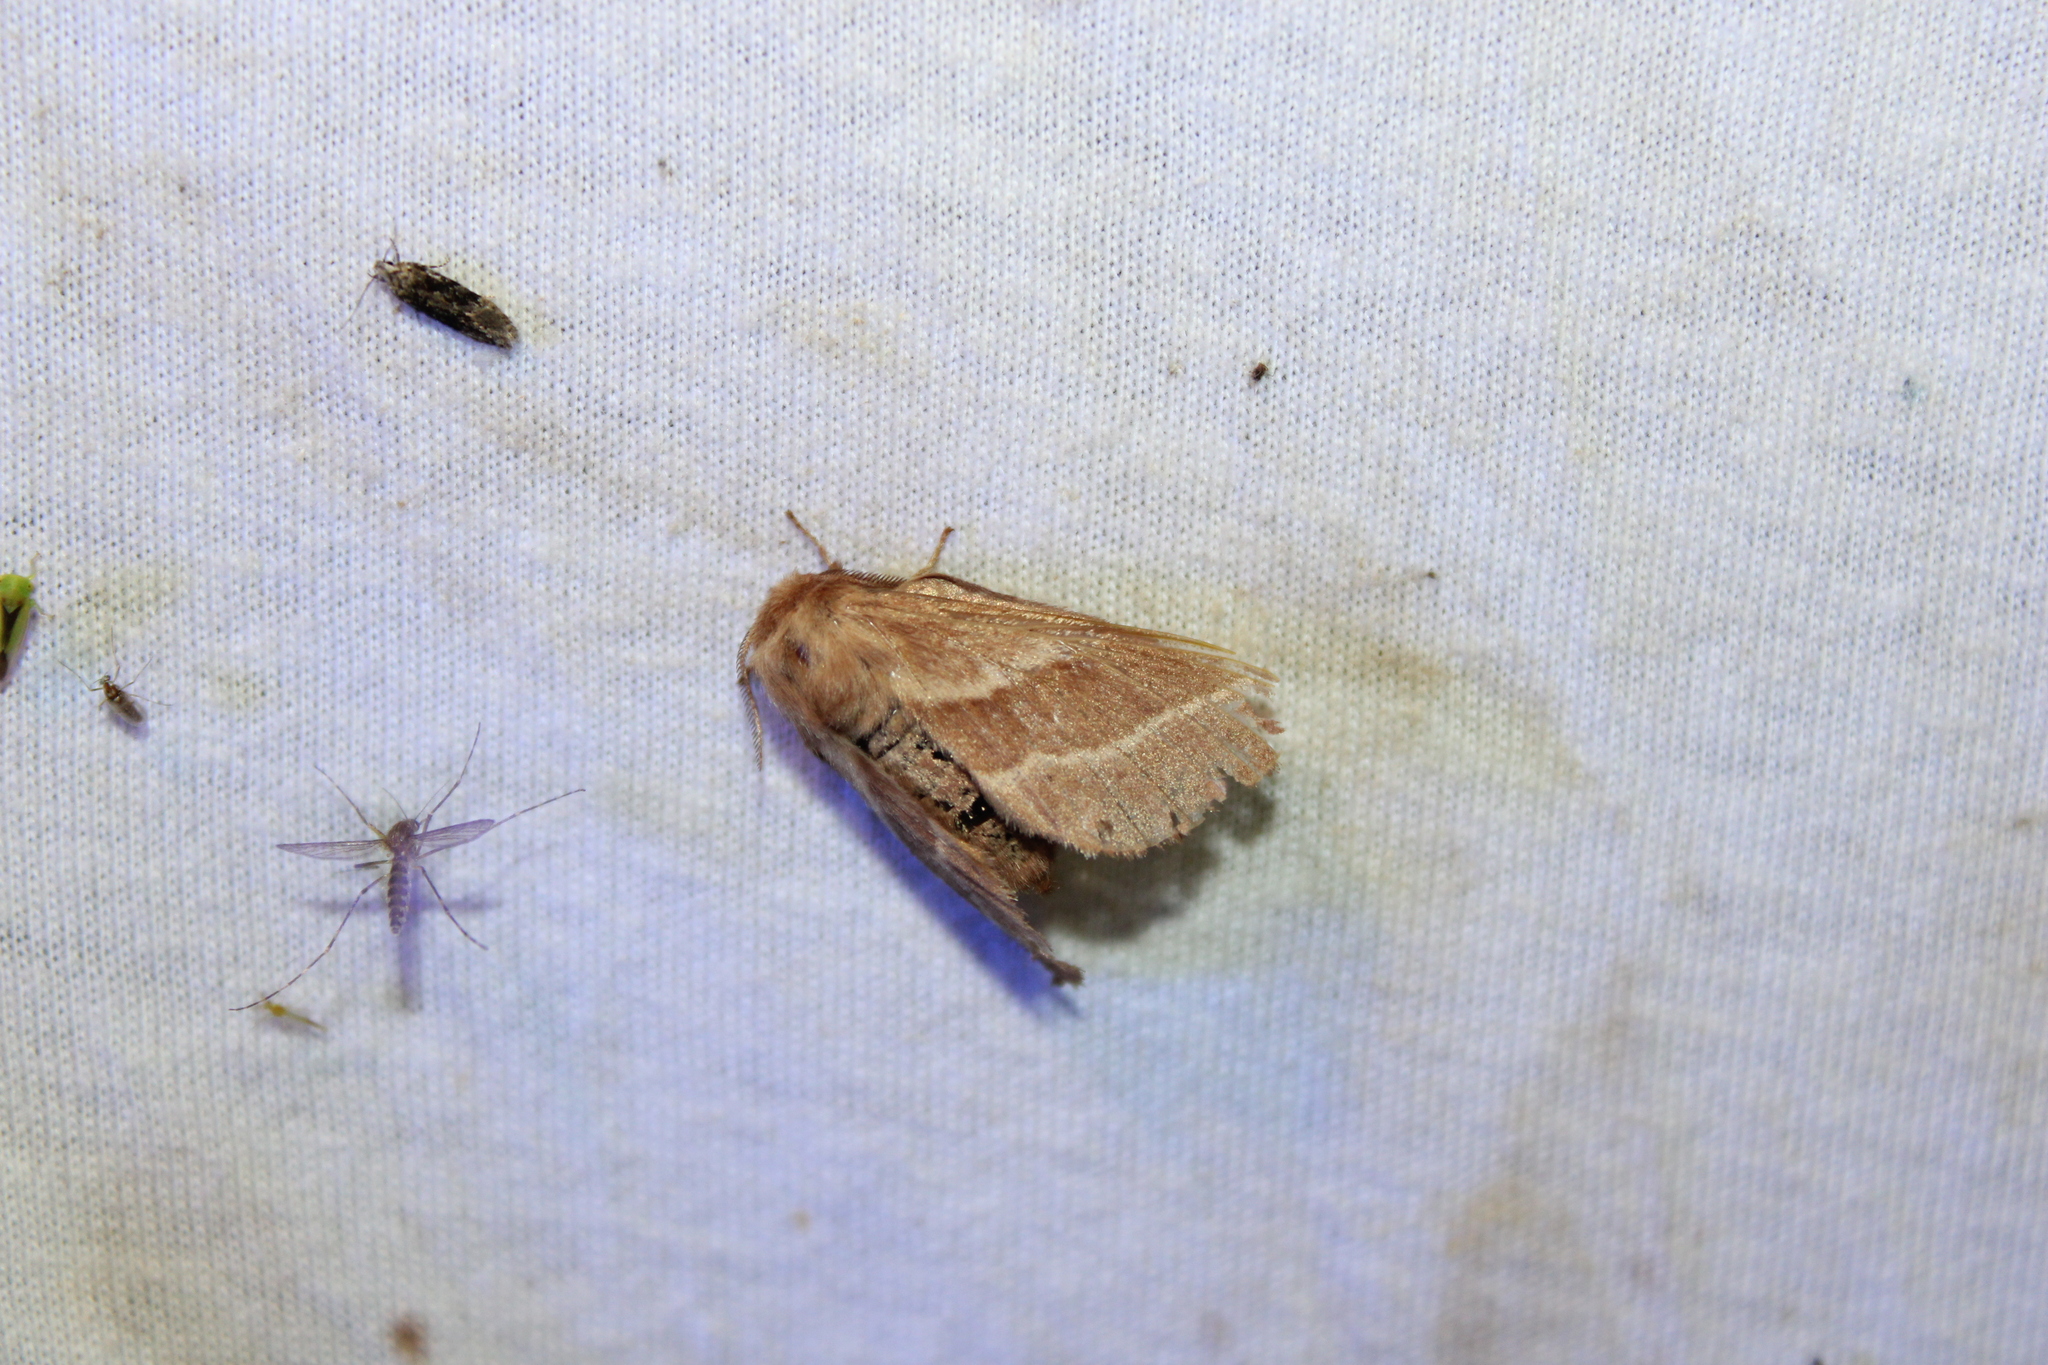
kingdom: Animalia
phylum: Arthropoda
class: Insecta
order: Lepidoptera
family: Lasiocampidae
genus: Malacosoma
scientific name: Malacosoma americana
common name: Eastern tent caterpillar moth
